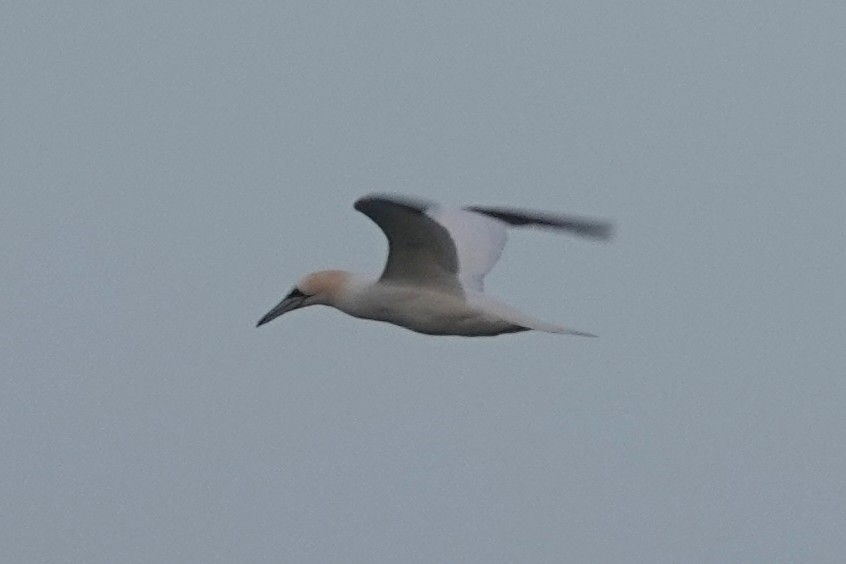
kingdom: Animalia
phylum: Chordata
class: Aves
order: Suliformes
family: Sulidae
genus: Morus
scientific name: Morus bassanus
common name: Northern gannet
